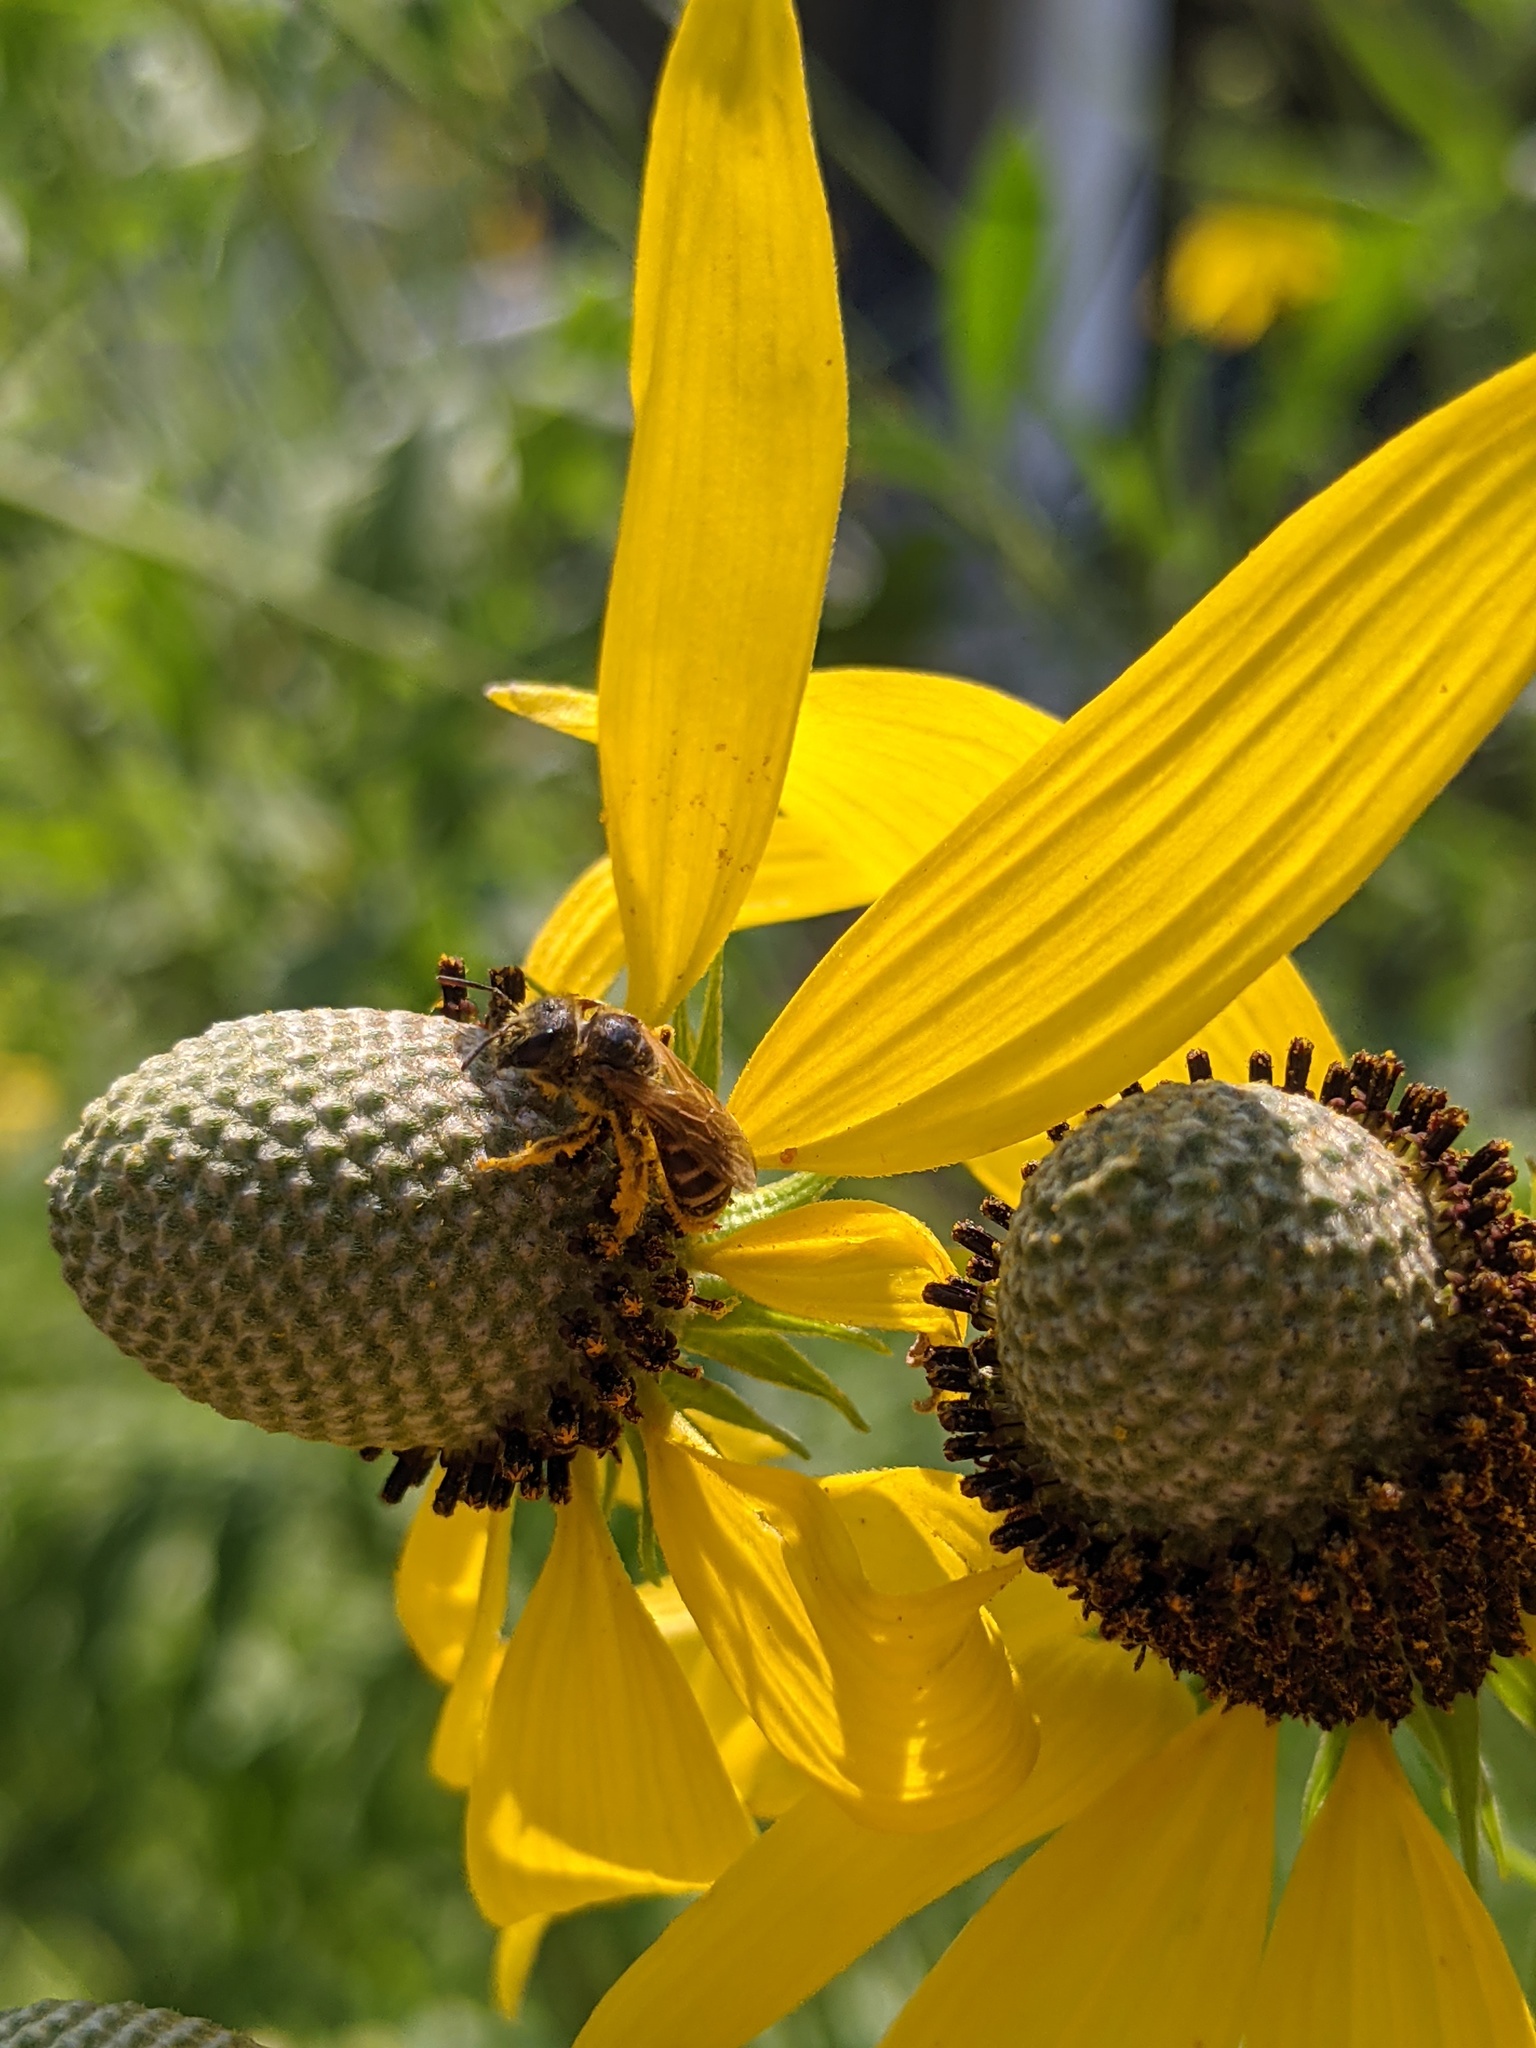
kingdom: Animalia
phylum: Arthropoda
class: Insecta
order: Hymenoptera
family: Halictidae
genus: Halictus
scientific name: Halictus ligatus
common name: Ligated furrow bee
